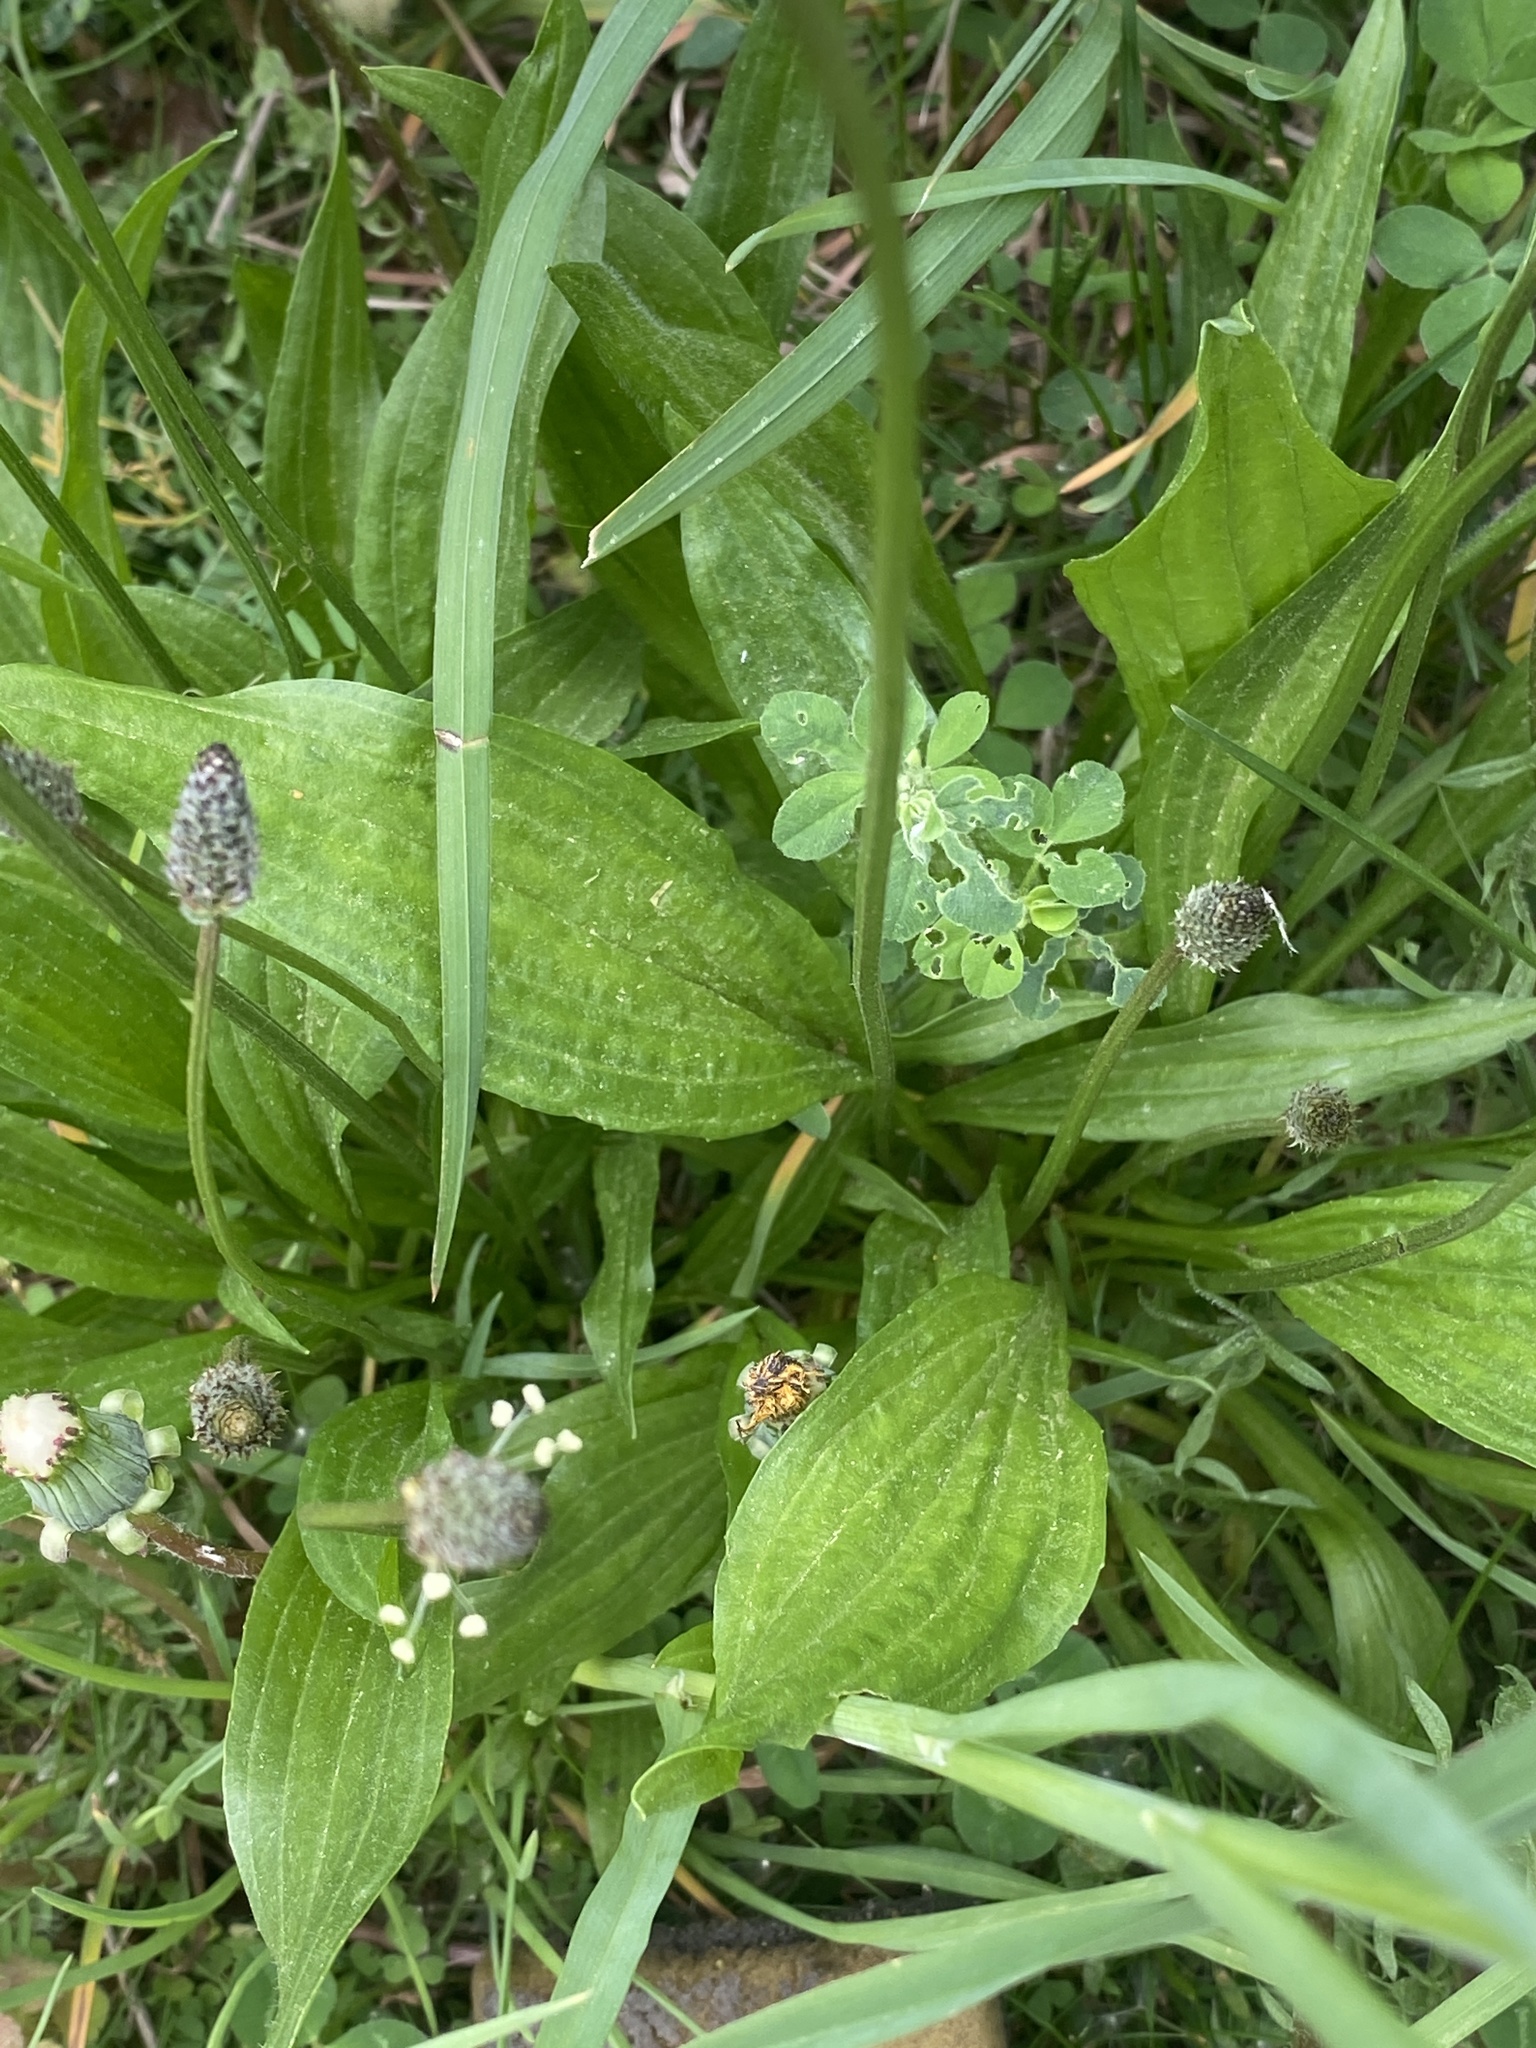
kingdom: Plantae
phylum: Tracheophyta
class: Magnoliopsida
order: Lamiales
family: Plantaginaceae
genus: Plantago
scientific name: Plantago lanceolata
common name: Ribwort plantain
